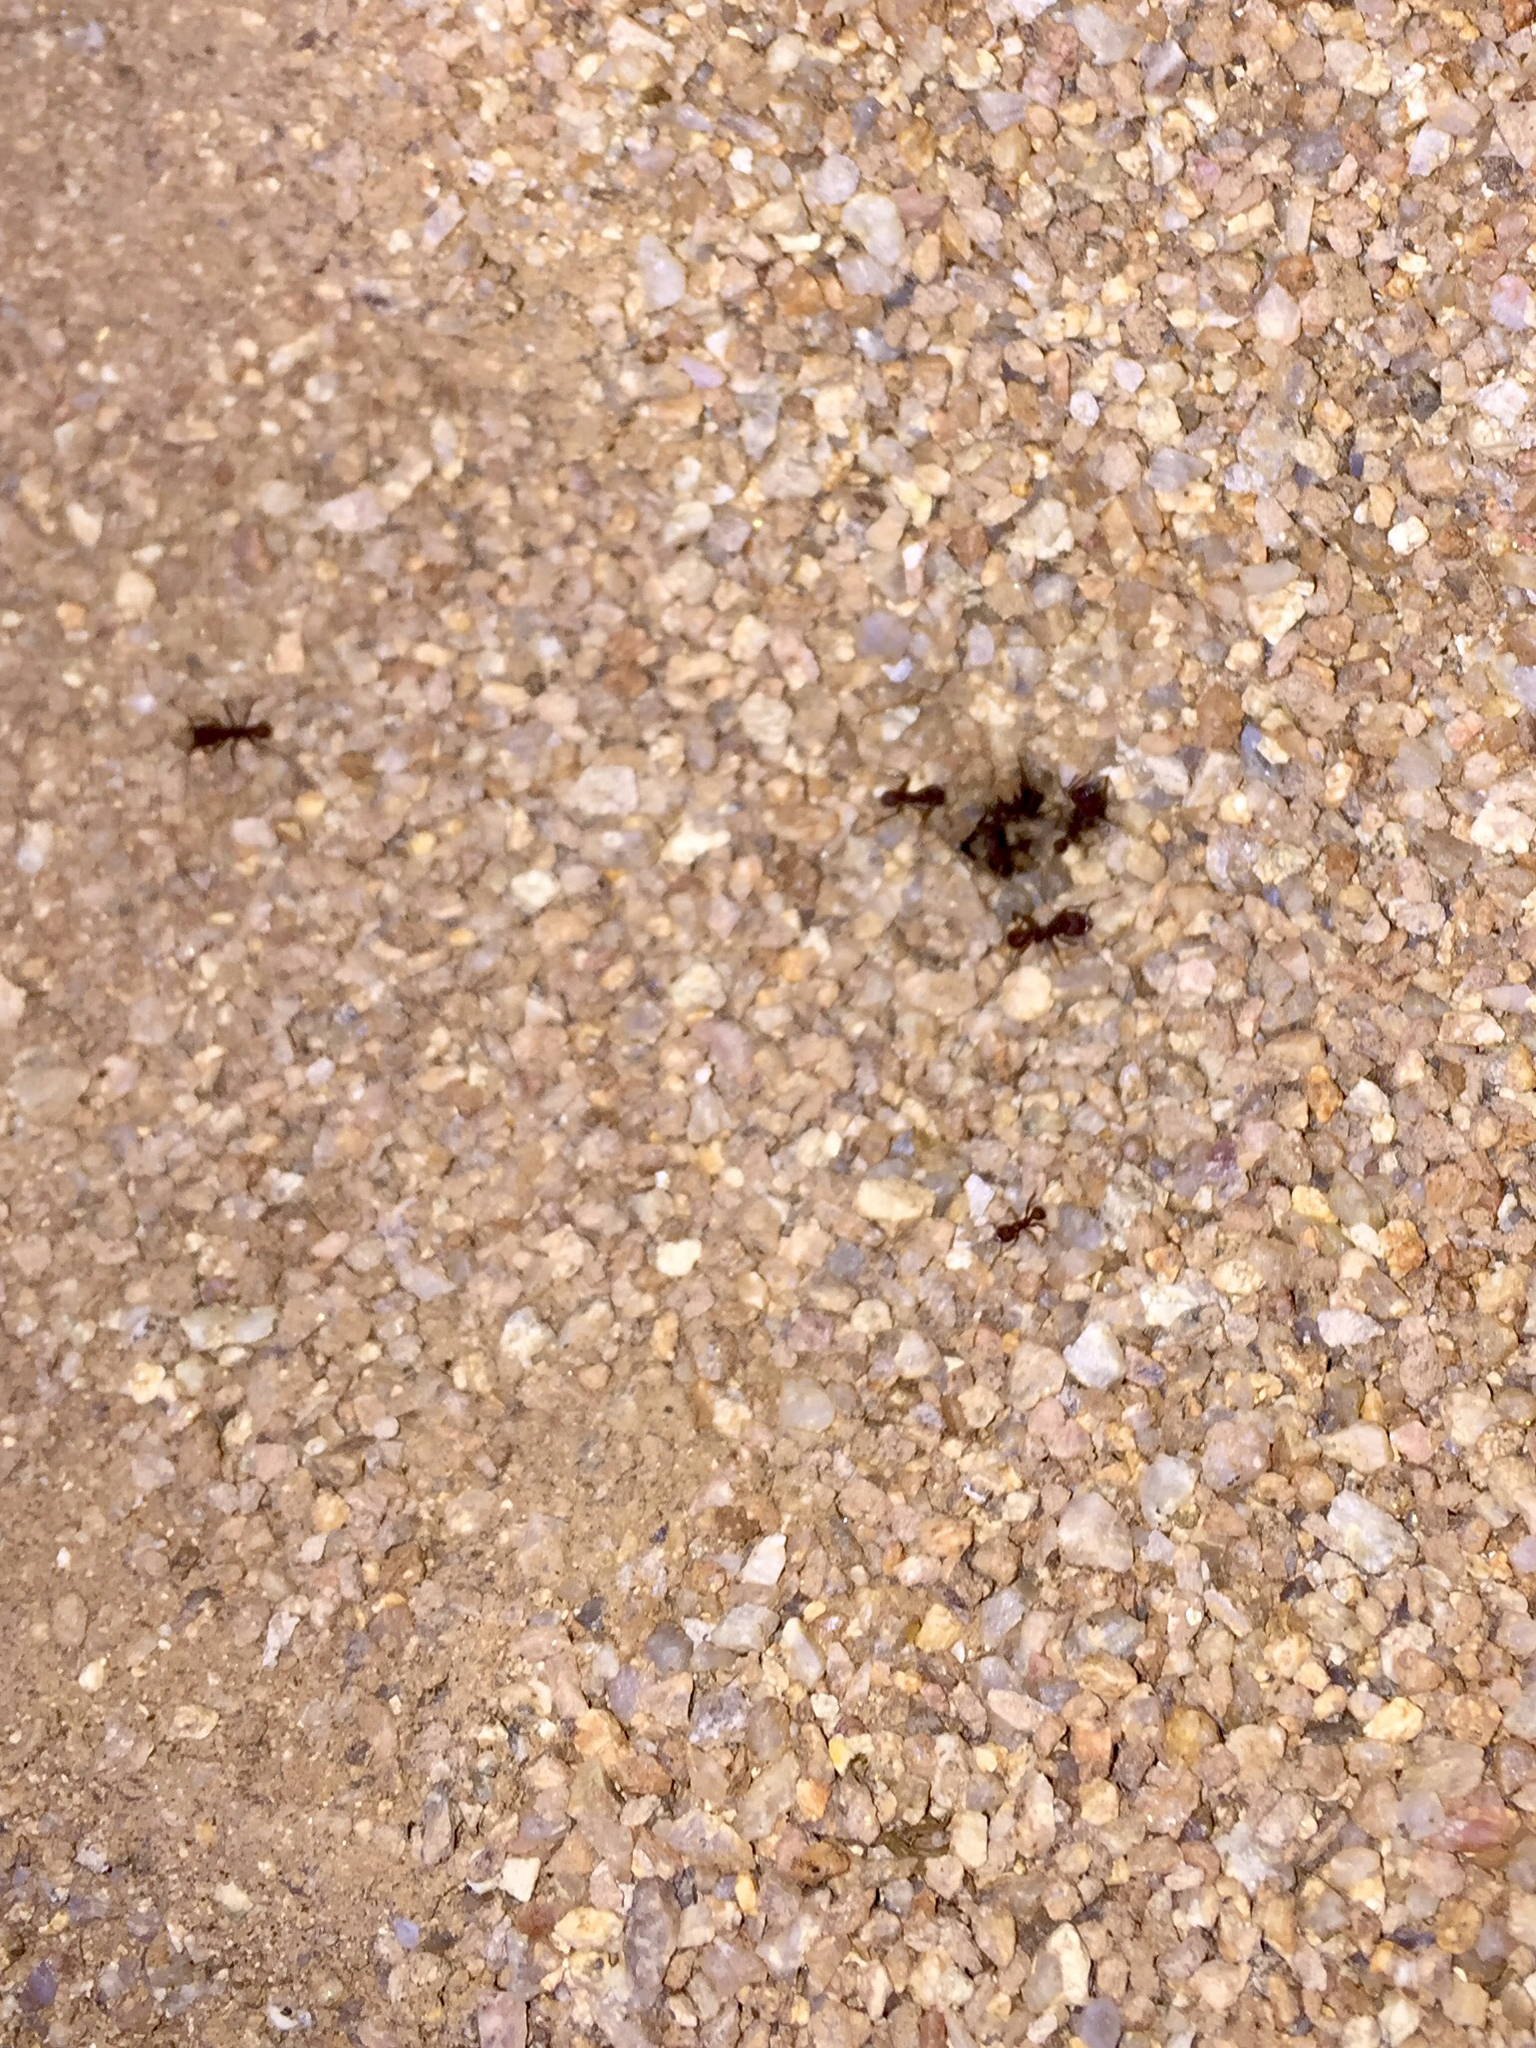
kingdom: Animalia
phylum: Arthropoda
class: Insecta
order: Hymenoptera
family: Formicidae
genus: Acromyrmex
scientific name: Acromyrmex versicolor
